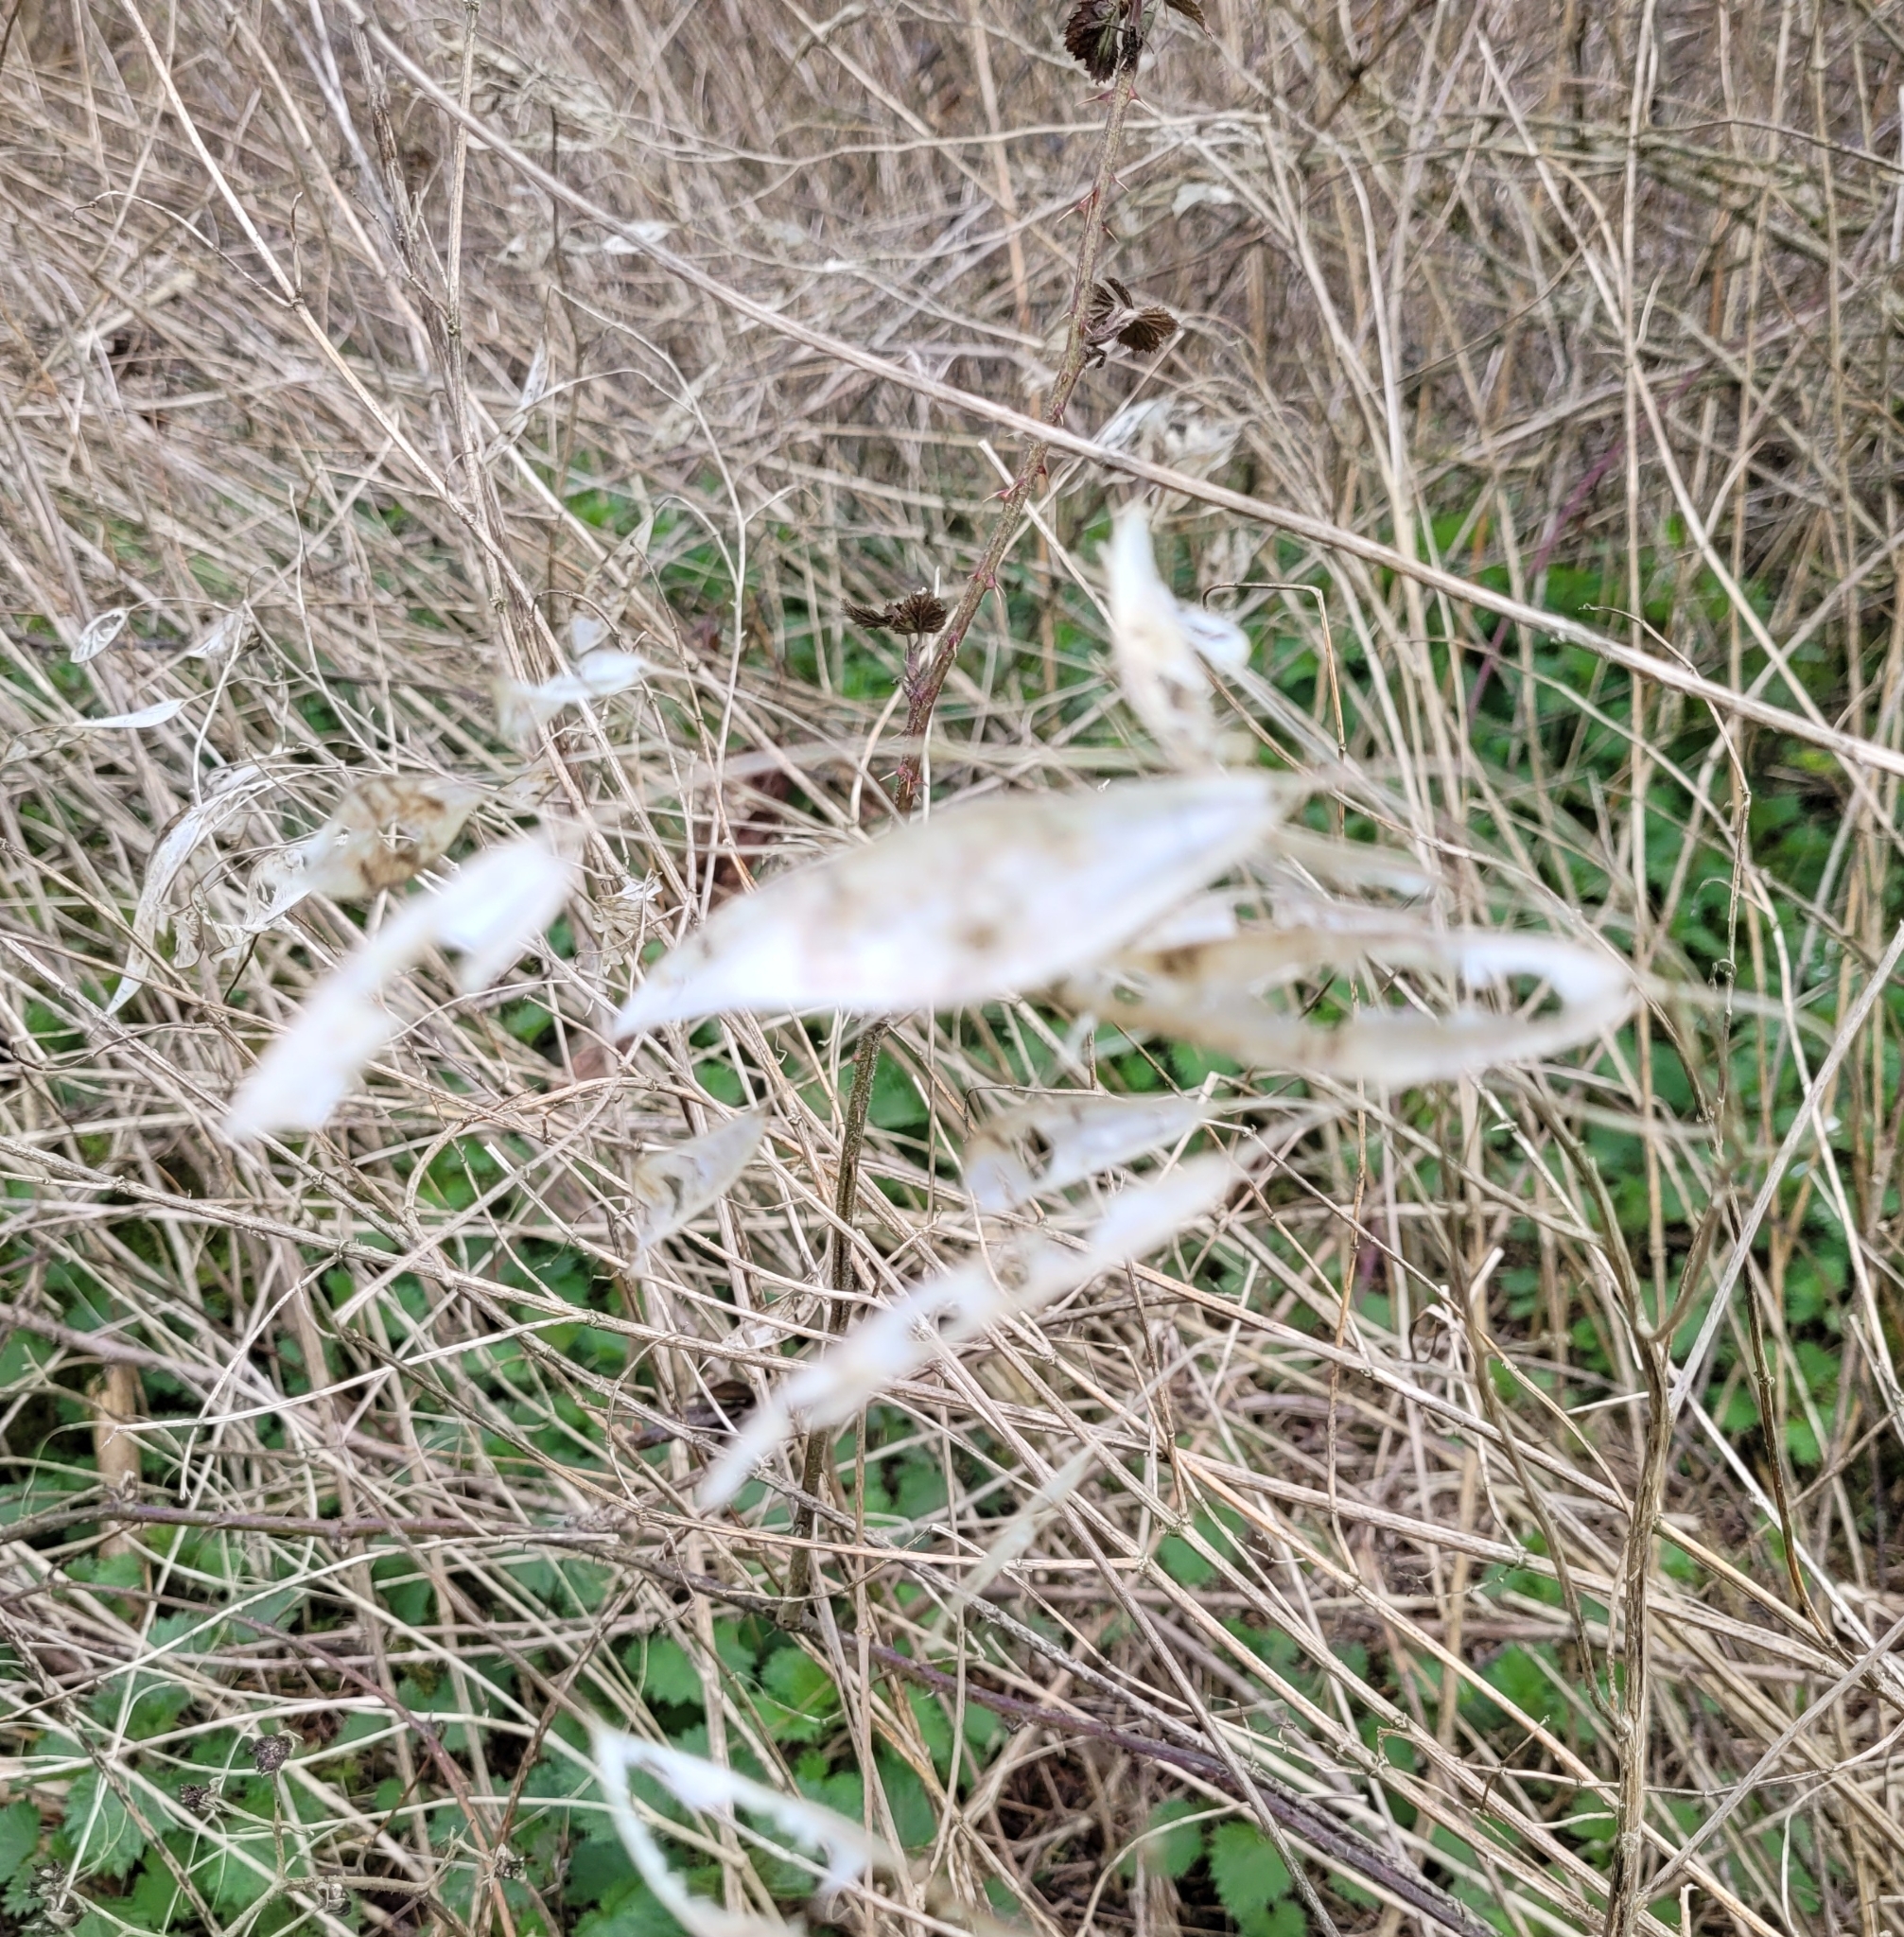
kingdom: Plantae
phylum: Tracheophyta
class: Magnoliopsida
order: Brassicales
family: Brassicaceae
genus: Lunaria
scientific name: Lunaria rediviva
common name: Perennial honesty
